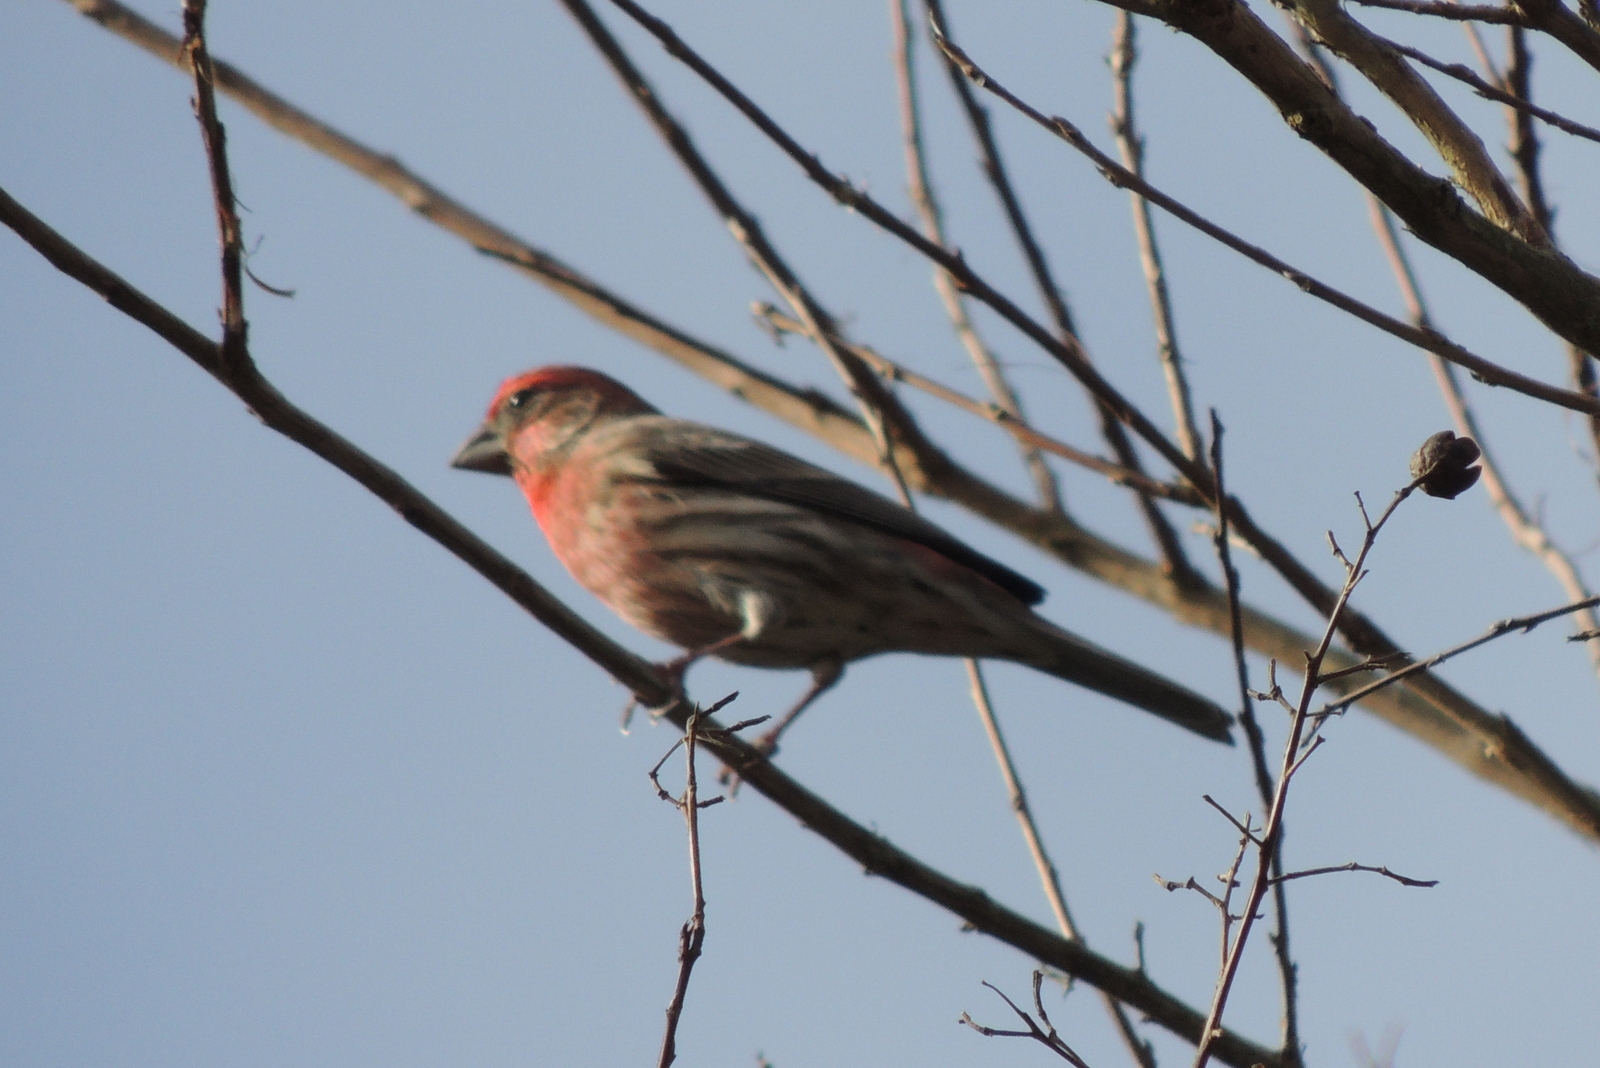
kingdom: Animalia
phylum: Chordata
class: Aves
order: Passeriformes
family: Fringillidae
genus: Haemorhous
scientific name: Haemorhous mexicanus
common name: House finch
